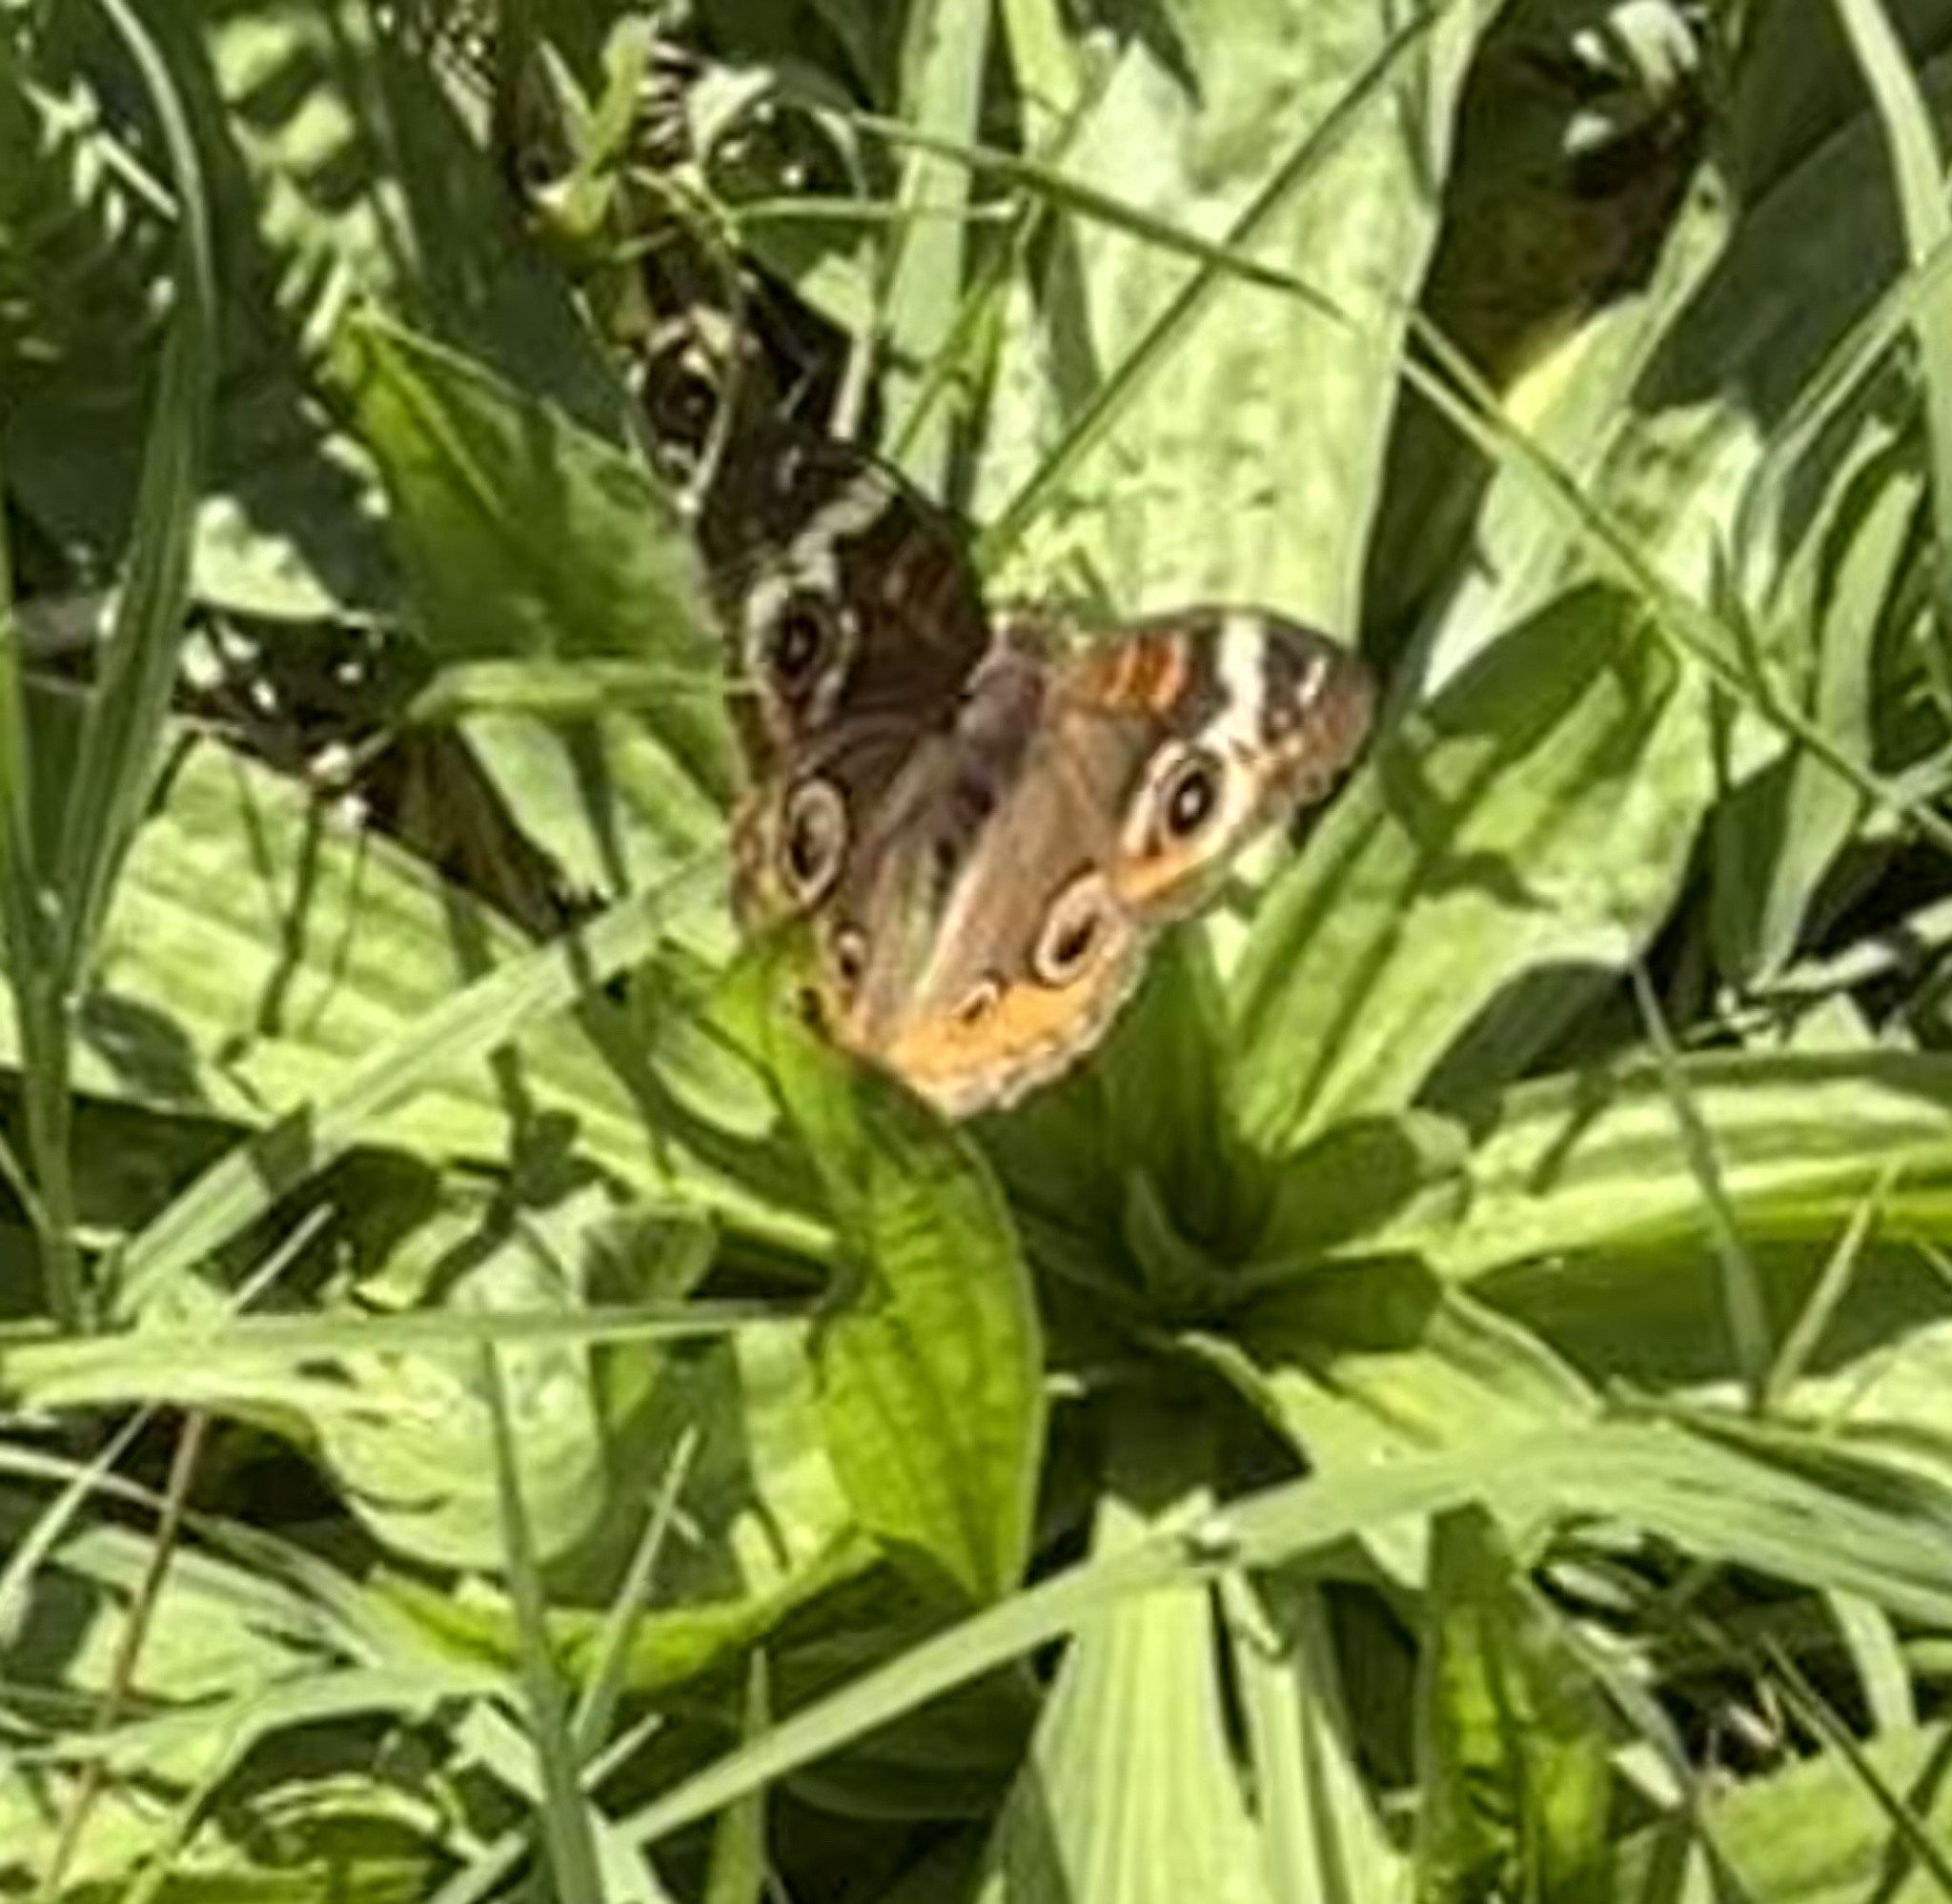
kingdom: Animalia
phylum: Arthropoda
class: Insecta
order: Lepidoptera
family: Nymphalidae
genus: Junonia
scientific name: Junonia coenia
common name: Common buckeye
